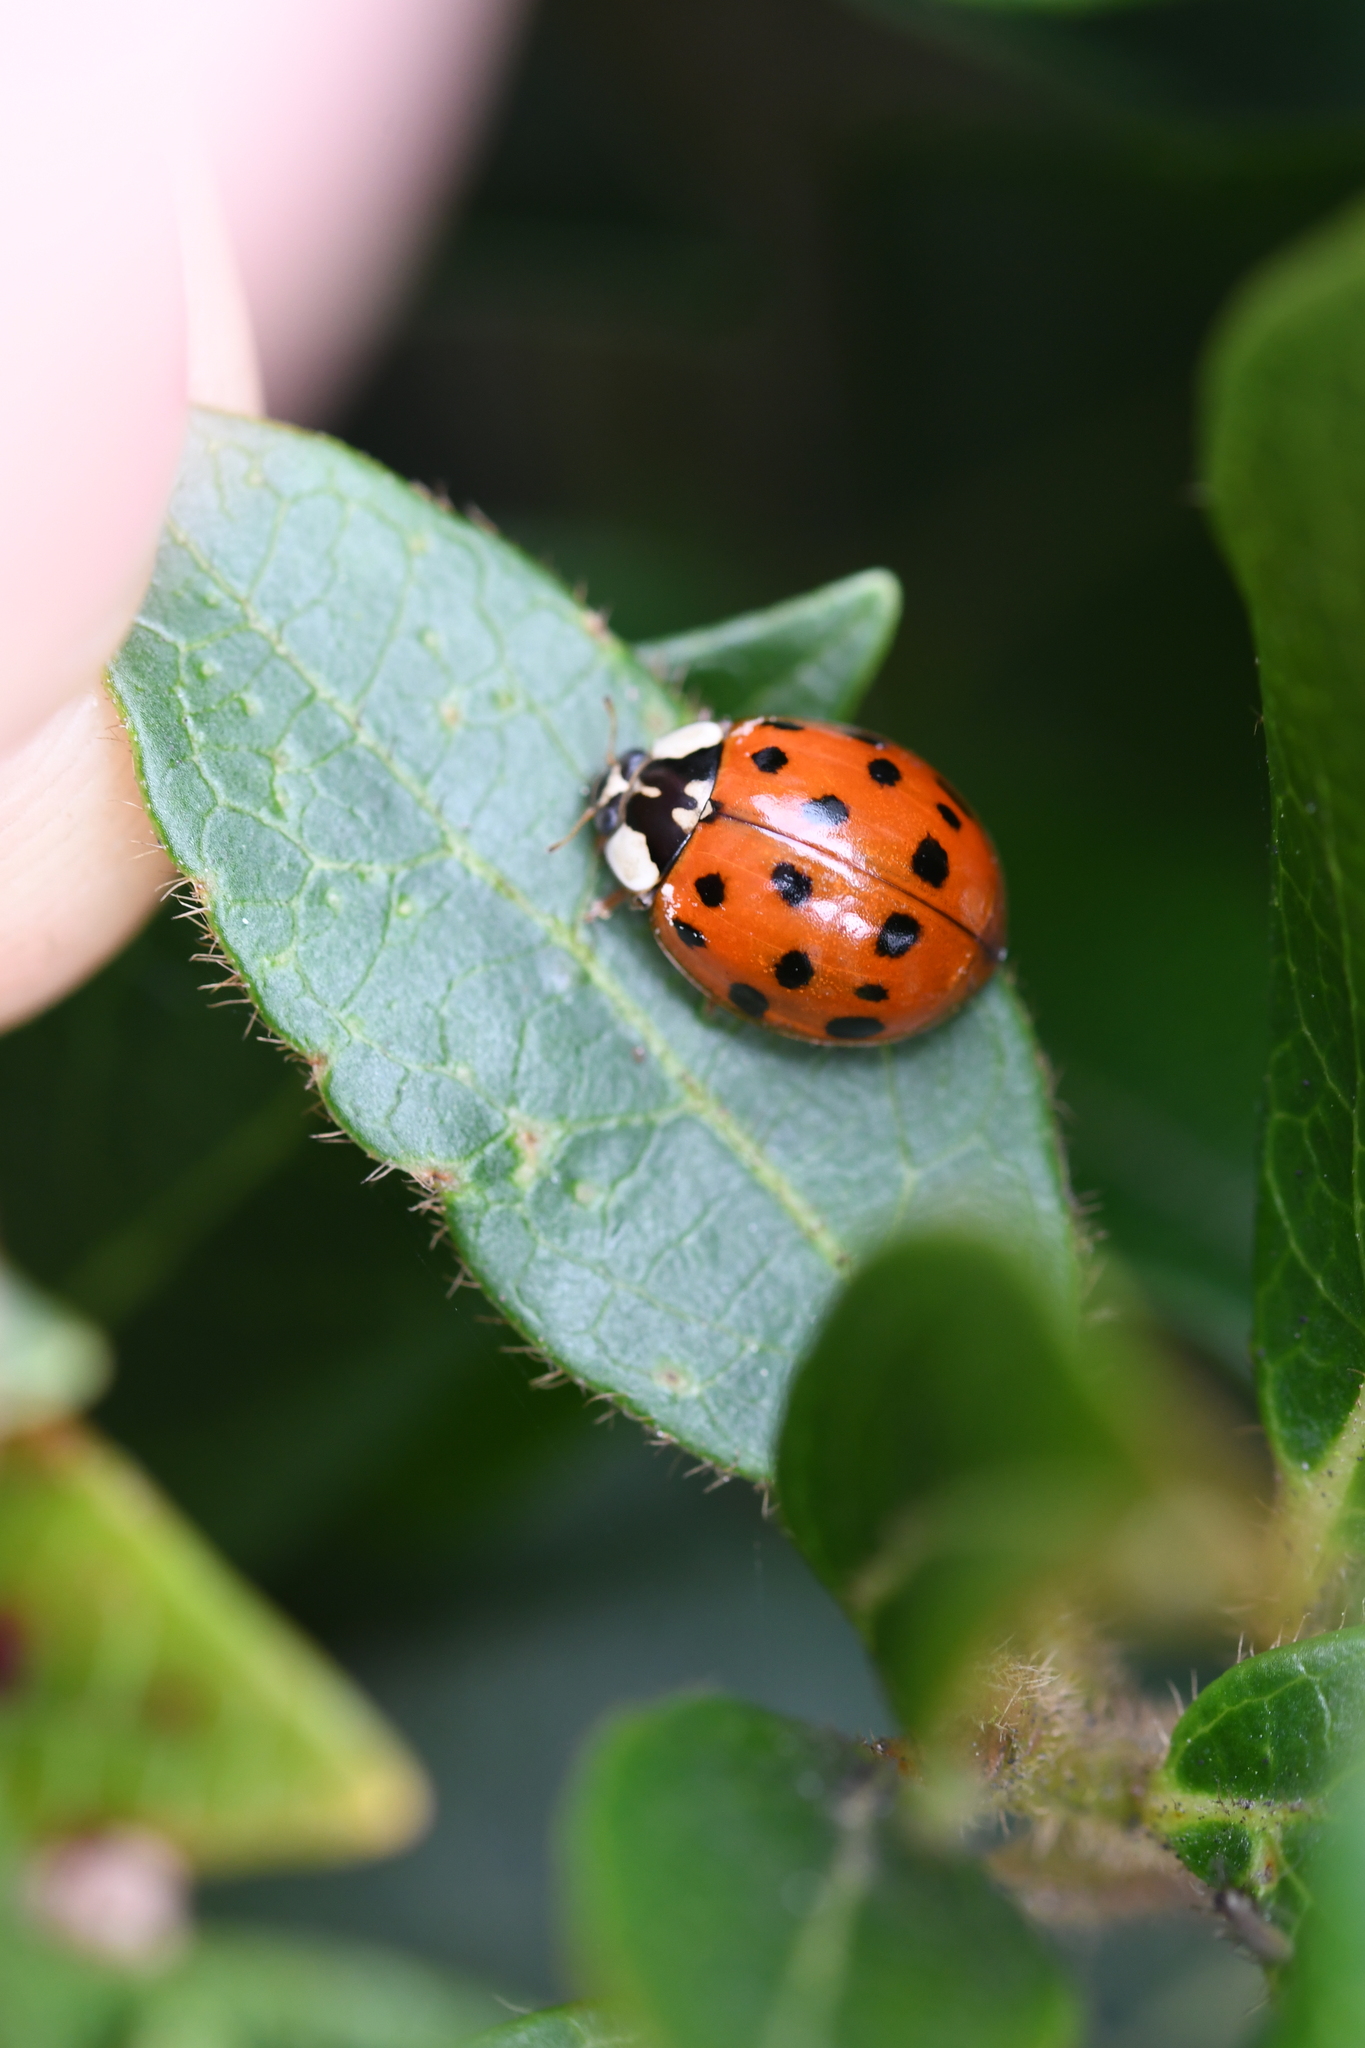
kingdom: Animalia
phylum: Arthropoda
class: Insecta
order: Coleoptera
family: Coccinellidae
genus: Harmonia
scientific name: Harmonia axyridis
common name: Harlequin ladybird
